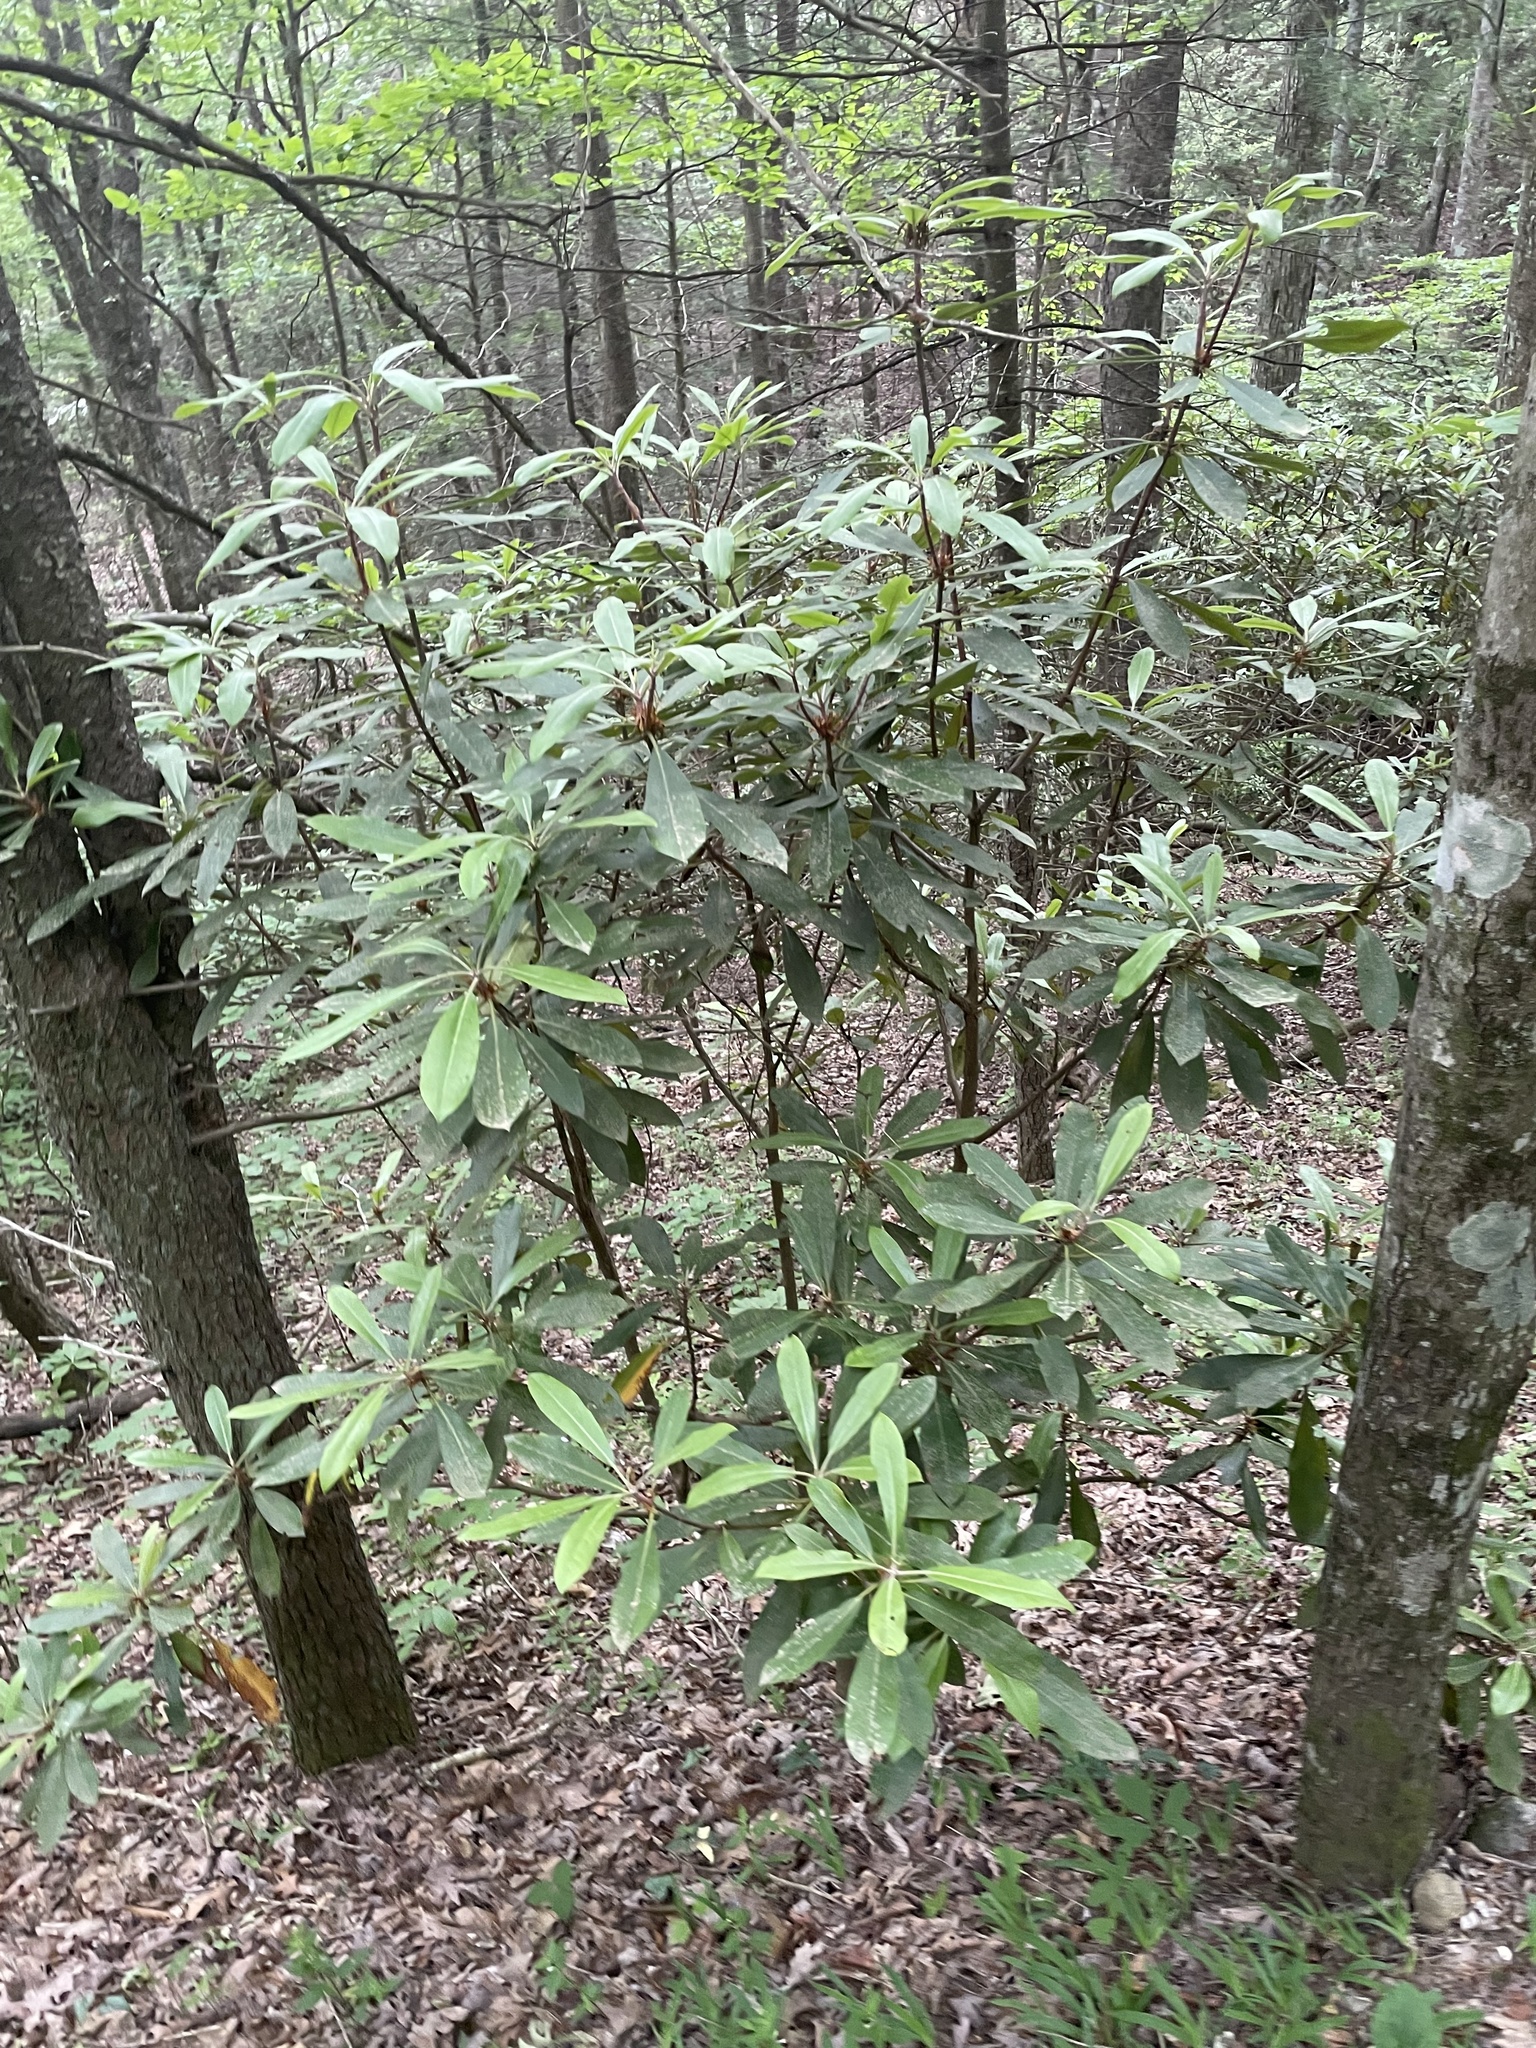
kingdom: Plantae
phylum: Tracheophyta
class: Magnoliopsida
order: Ericales
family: Ericaceae
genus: Rhododendron
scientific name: Rhododendron maximum
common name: Great rhododendron
